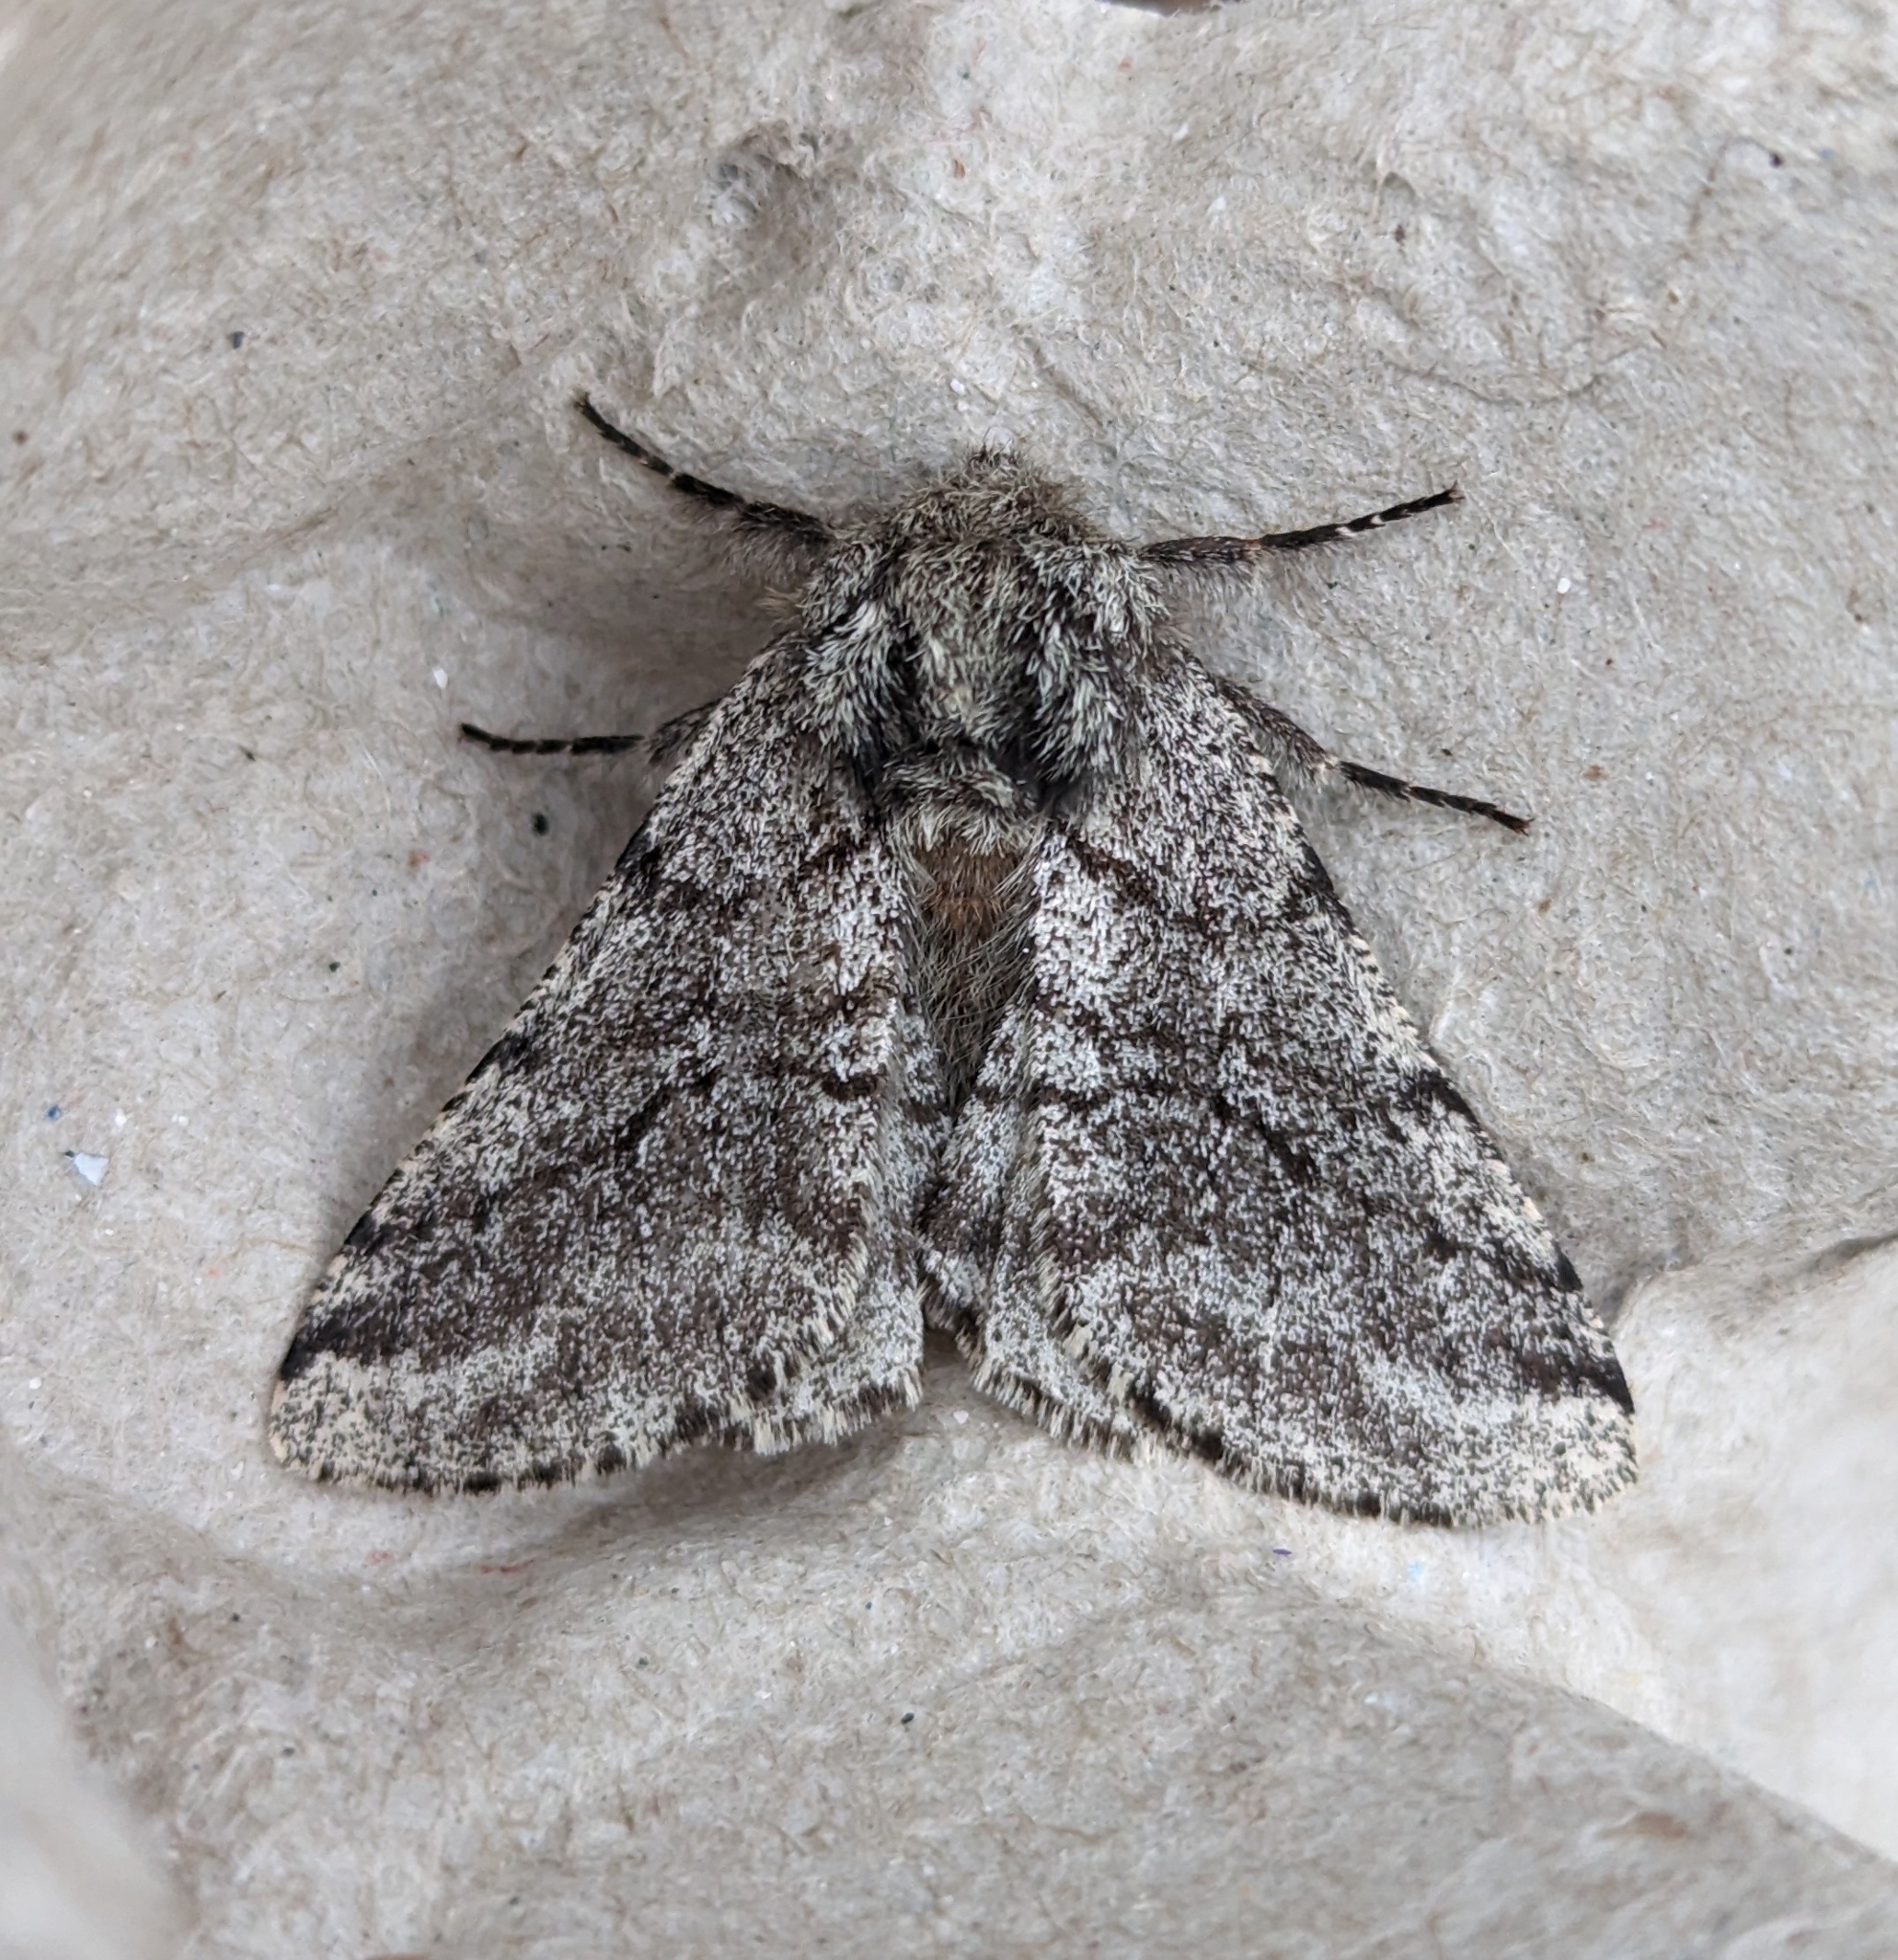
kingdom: Animalia
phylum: Arthropoda
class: Insecta
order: Lepidoptera
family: Geometridae
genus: Lycia
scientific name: Lycia ursaria
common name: Stout spanworm
